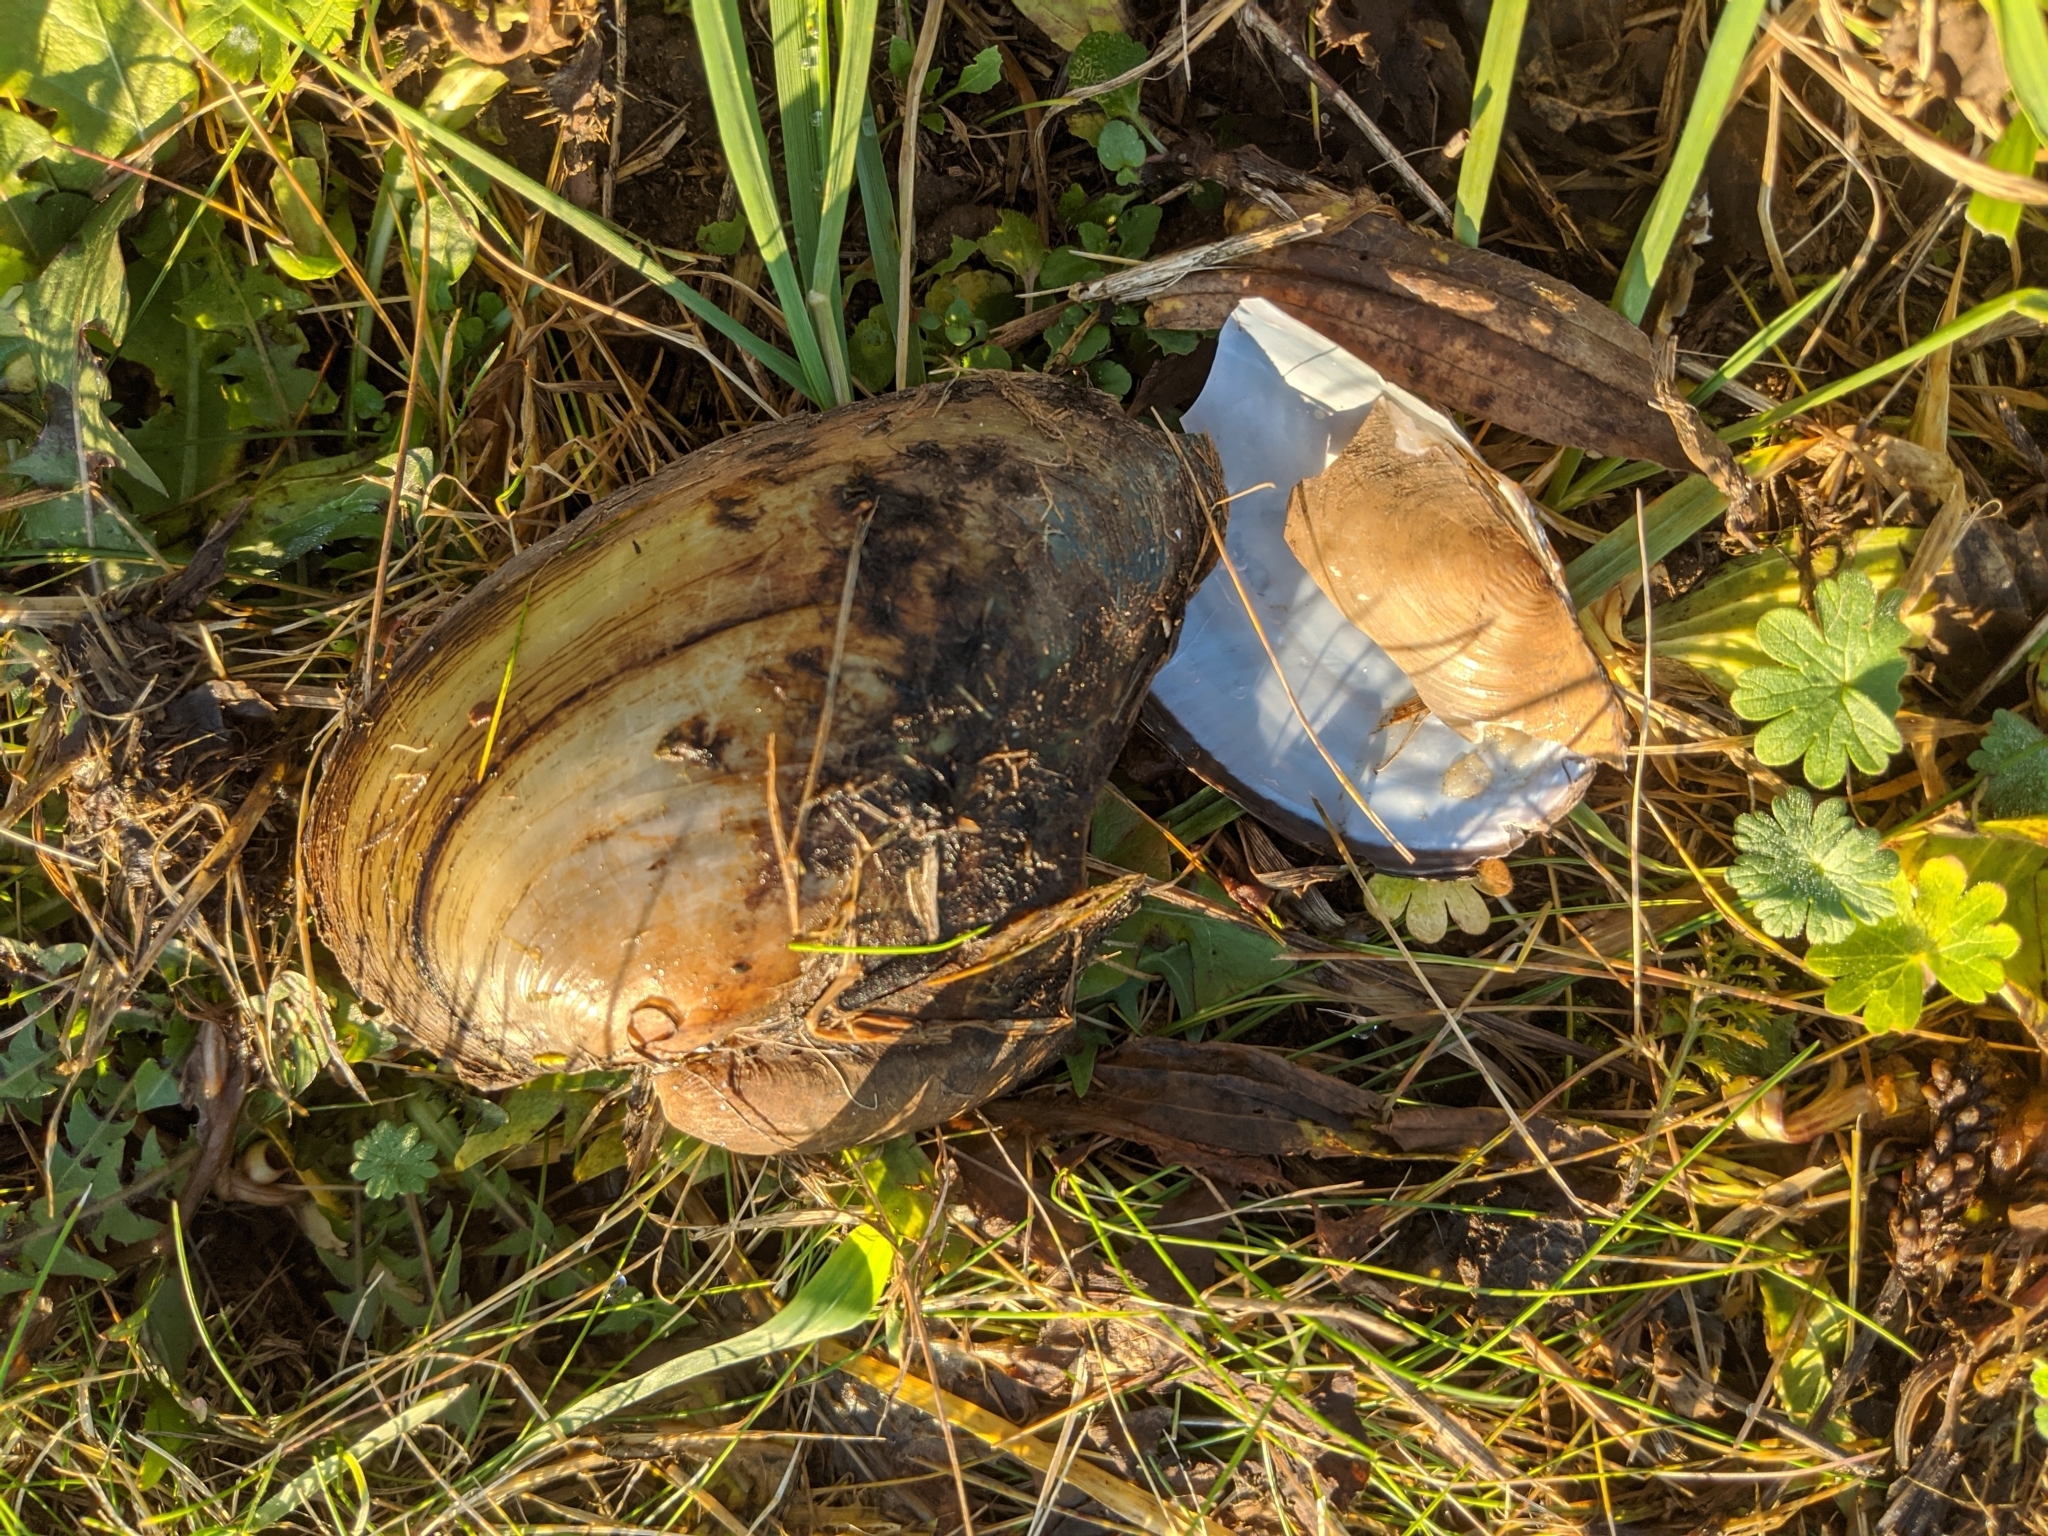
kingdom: Animalia
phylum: Mollusca
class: Bivalvia
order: Unionida
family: Unionidae
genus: Anodonta
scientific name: Anodonta anatina
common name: Duck mussel
